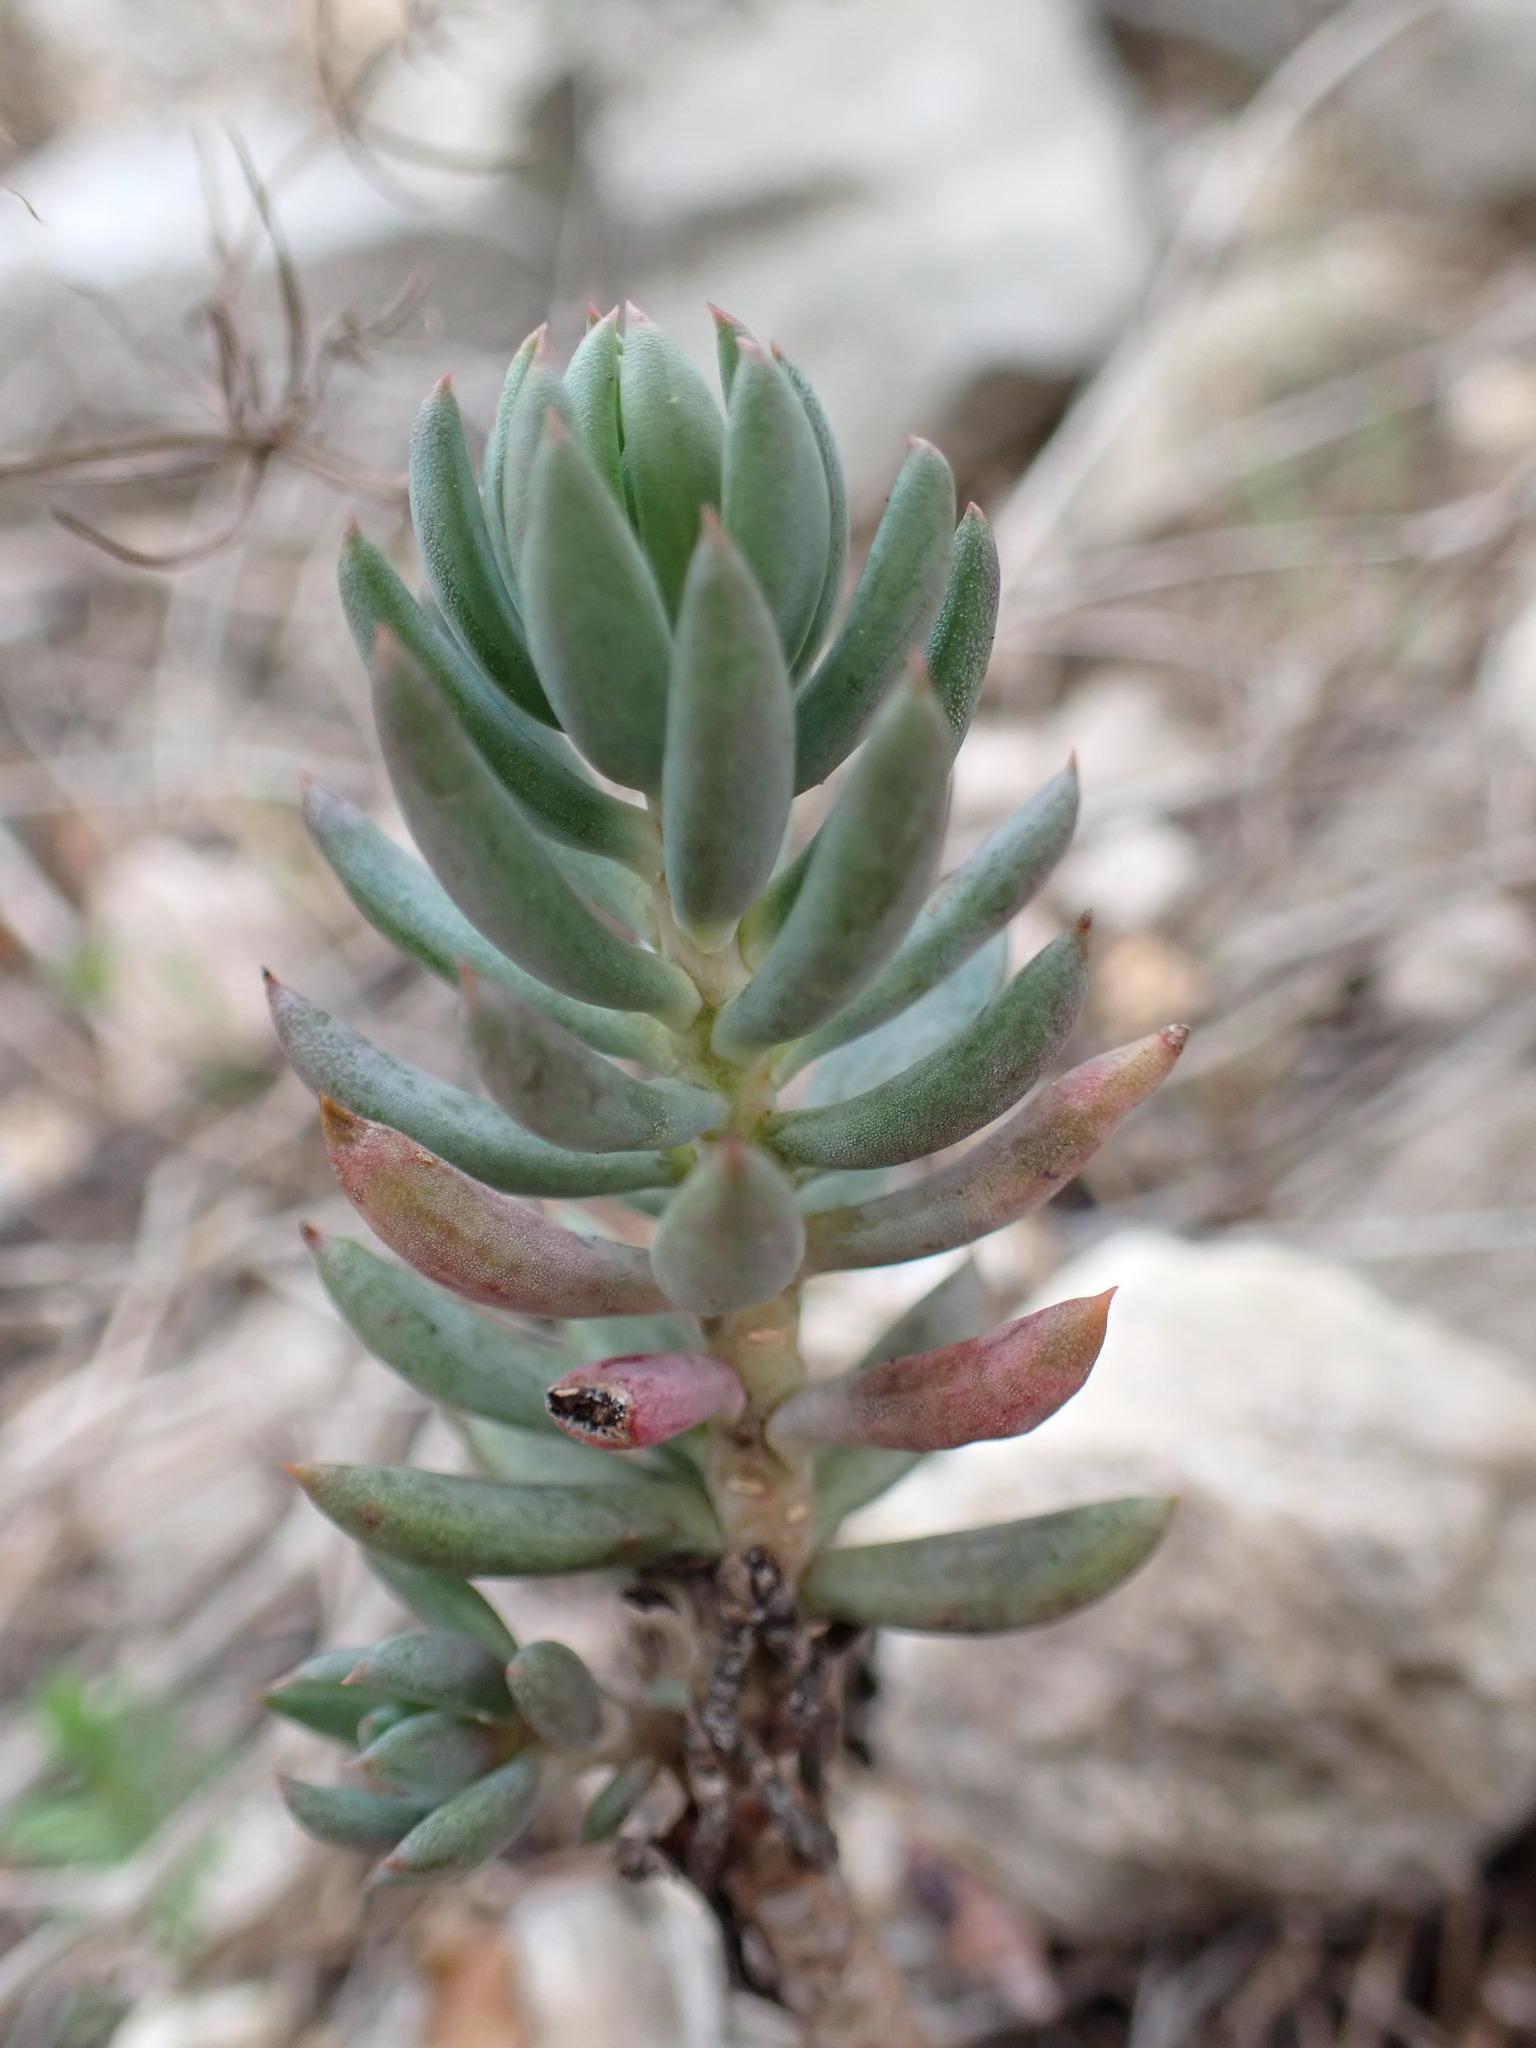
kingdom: Plantae
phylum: Tracheophyta
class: Magnoliopsida
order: Saxifragales
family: Crassulaceae
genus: Petrosedum
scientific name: Petrosedum sediforme
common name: Pale stonecrop
